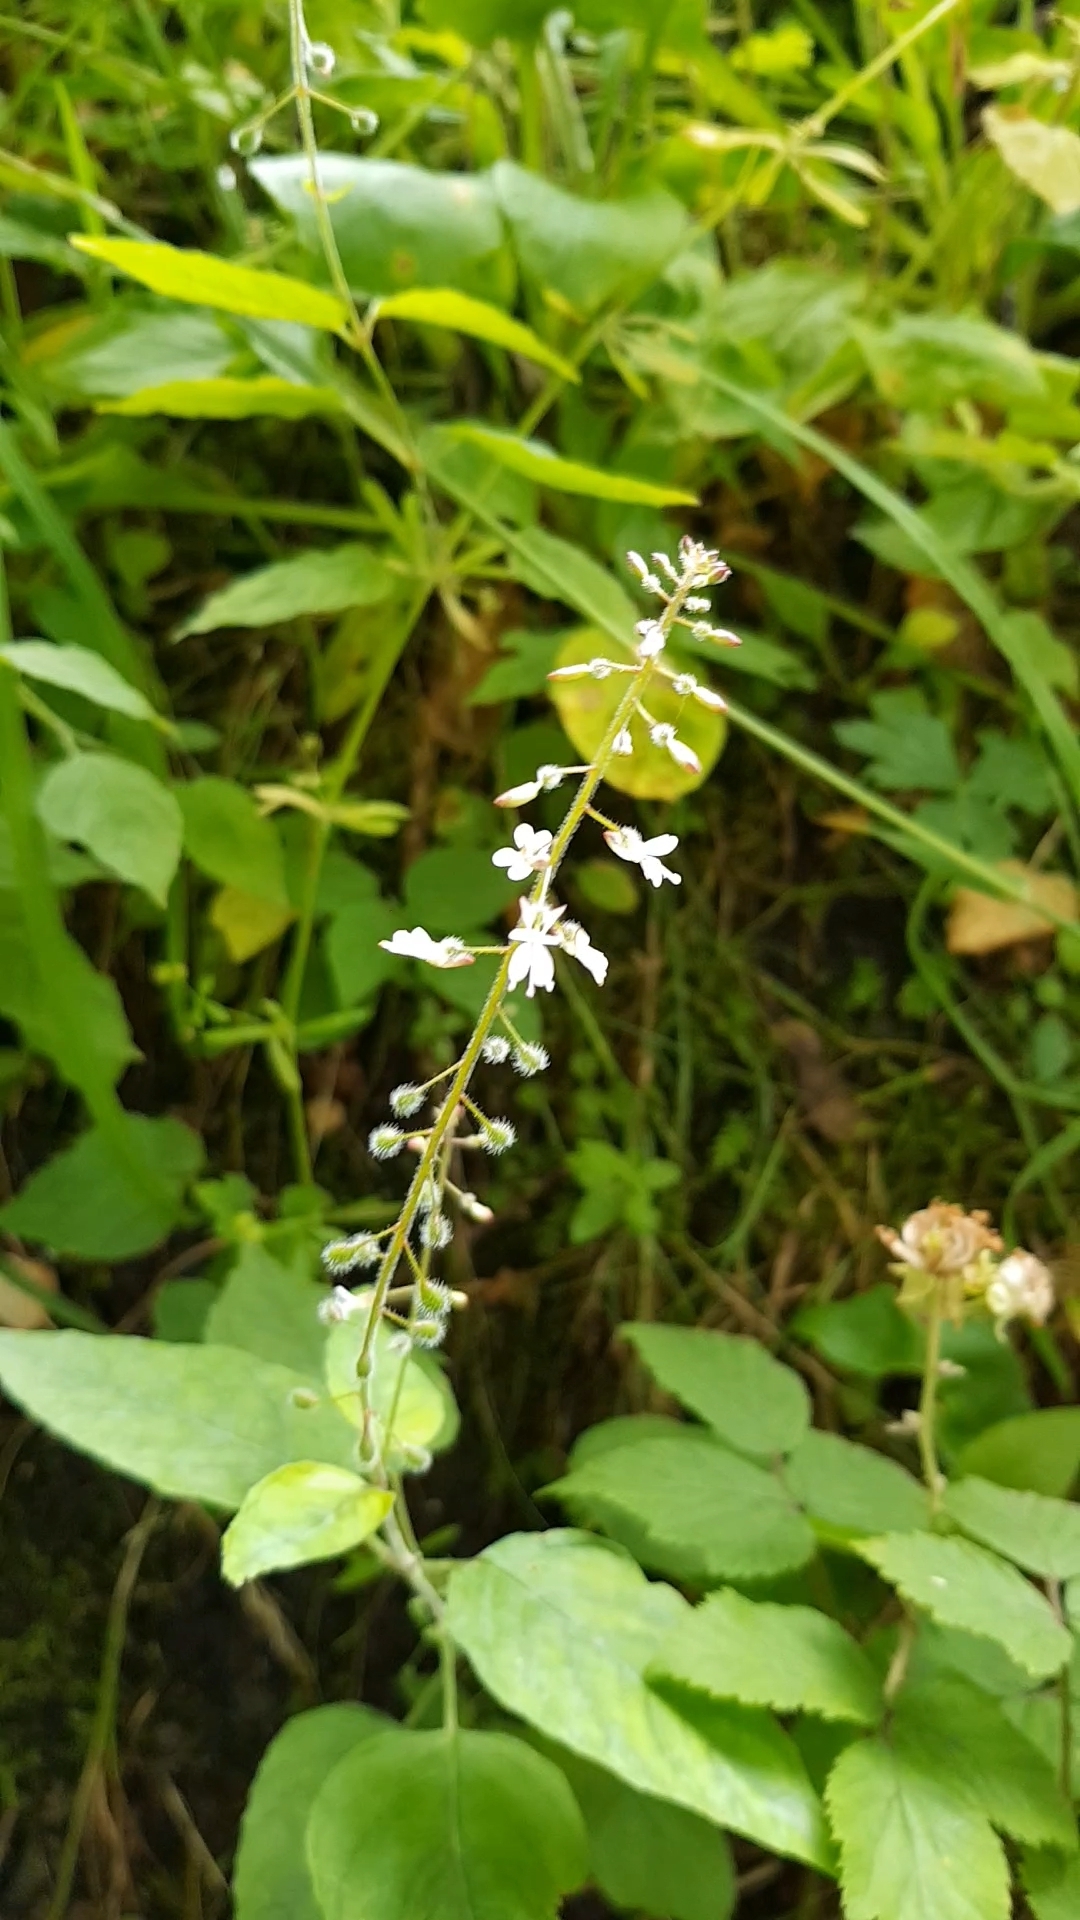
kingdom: Plantae
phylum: Tracheophyta
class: Magnoliopsida
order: Myrtales
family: Onagraceae
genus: Circaea
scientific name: Circaea lutetiana
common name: Enchanter's-nightshade
